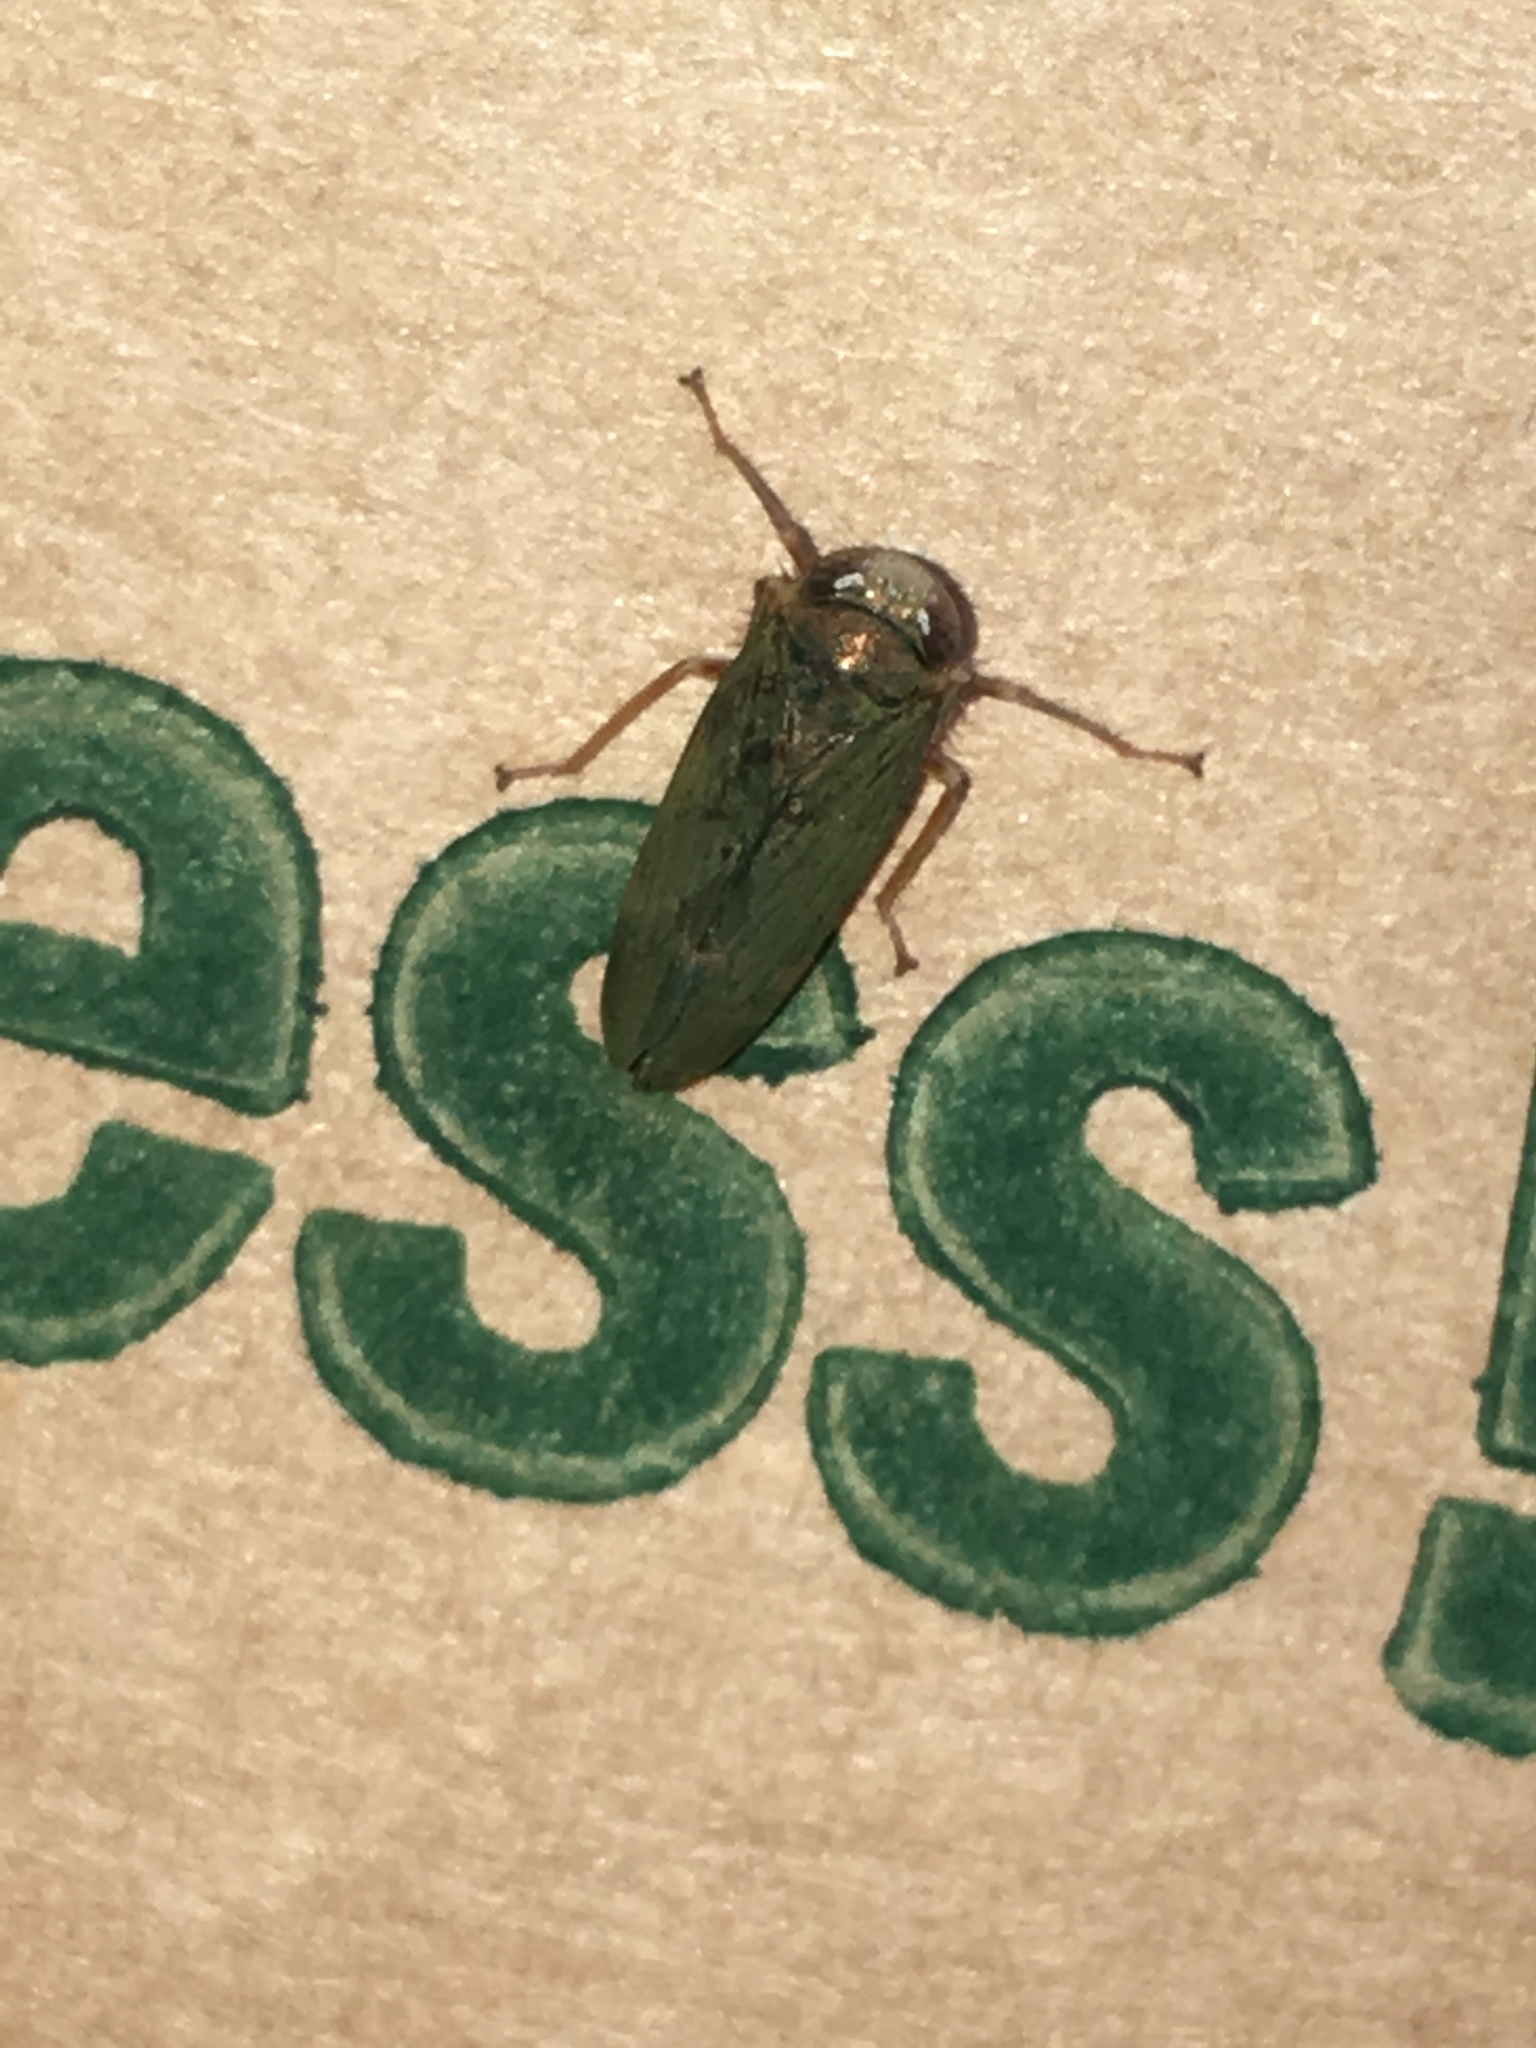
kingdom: Animalia
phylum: Arthropoda
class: Insecta
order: Hemiptera
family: Cicadellidae
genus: Jikradia
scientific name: Jikradia olitoria
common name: Coppery leafhopper
